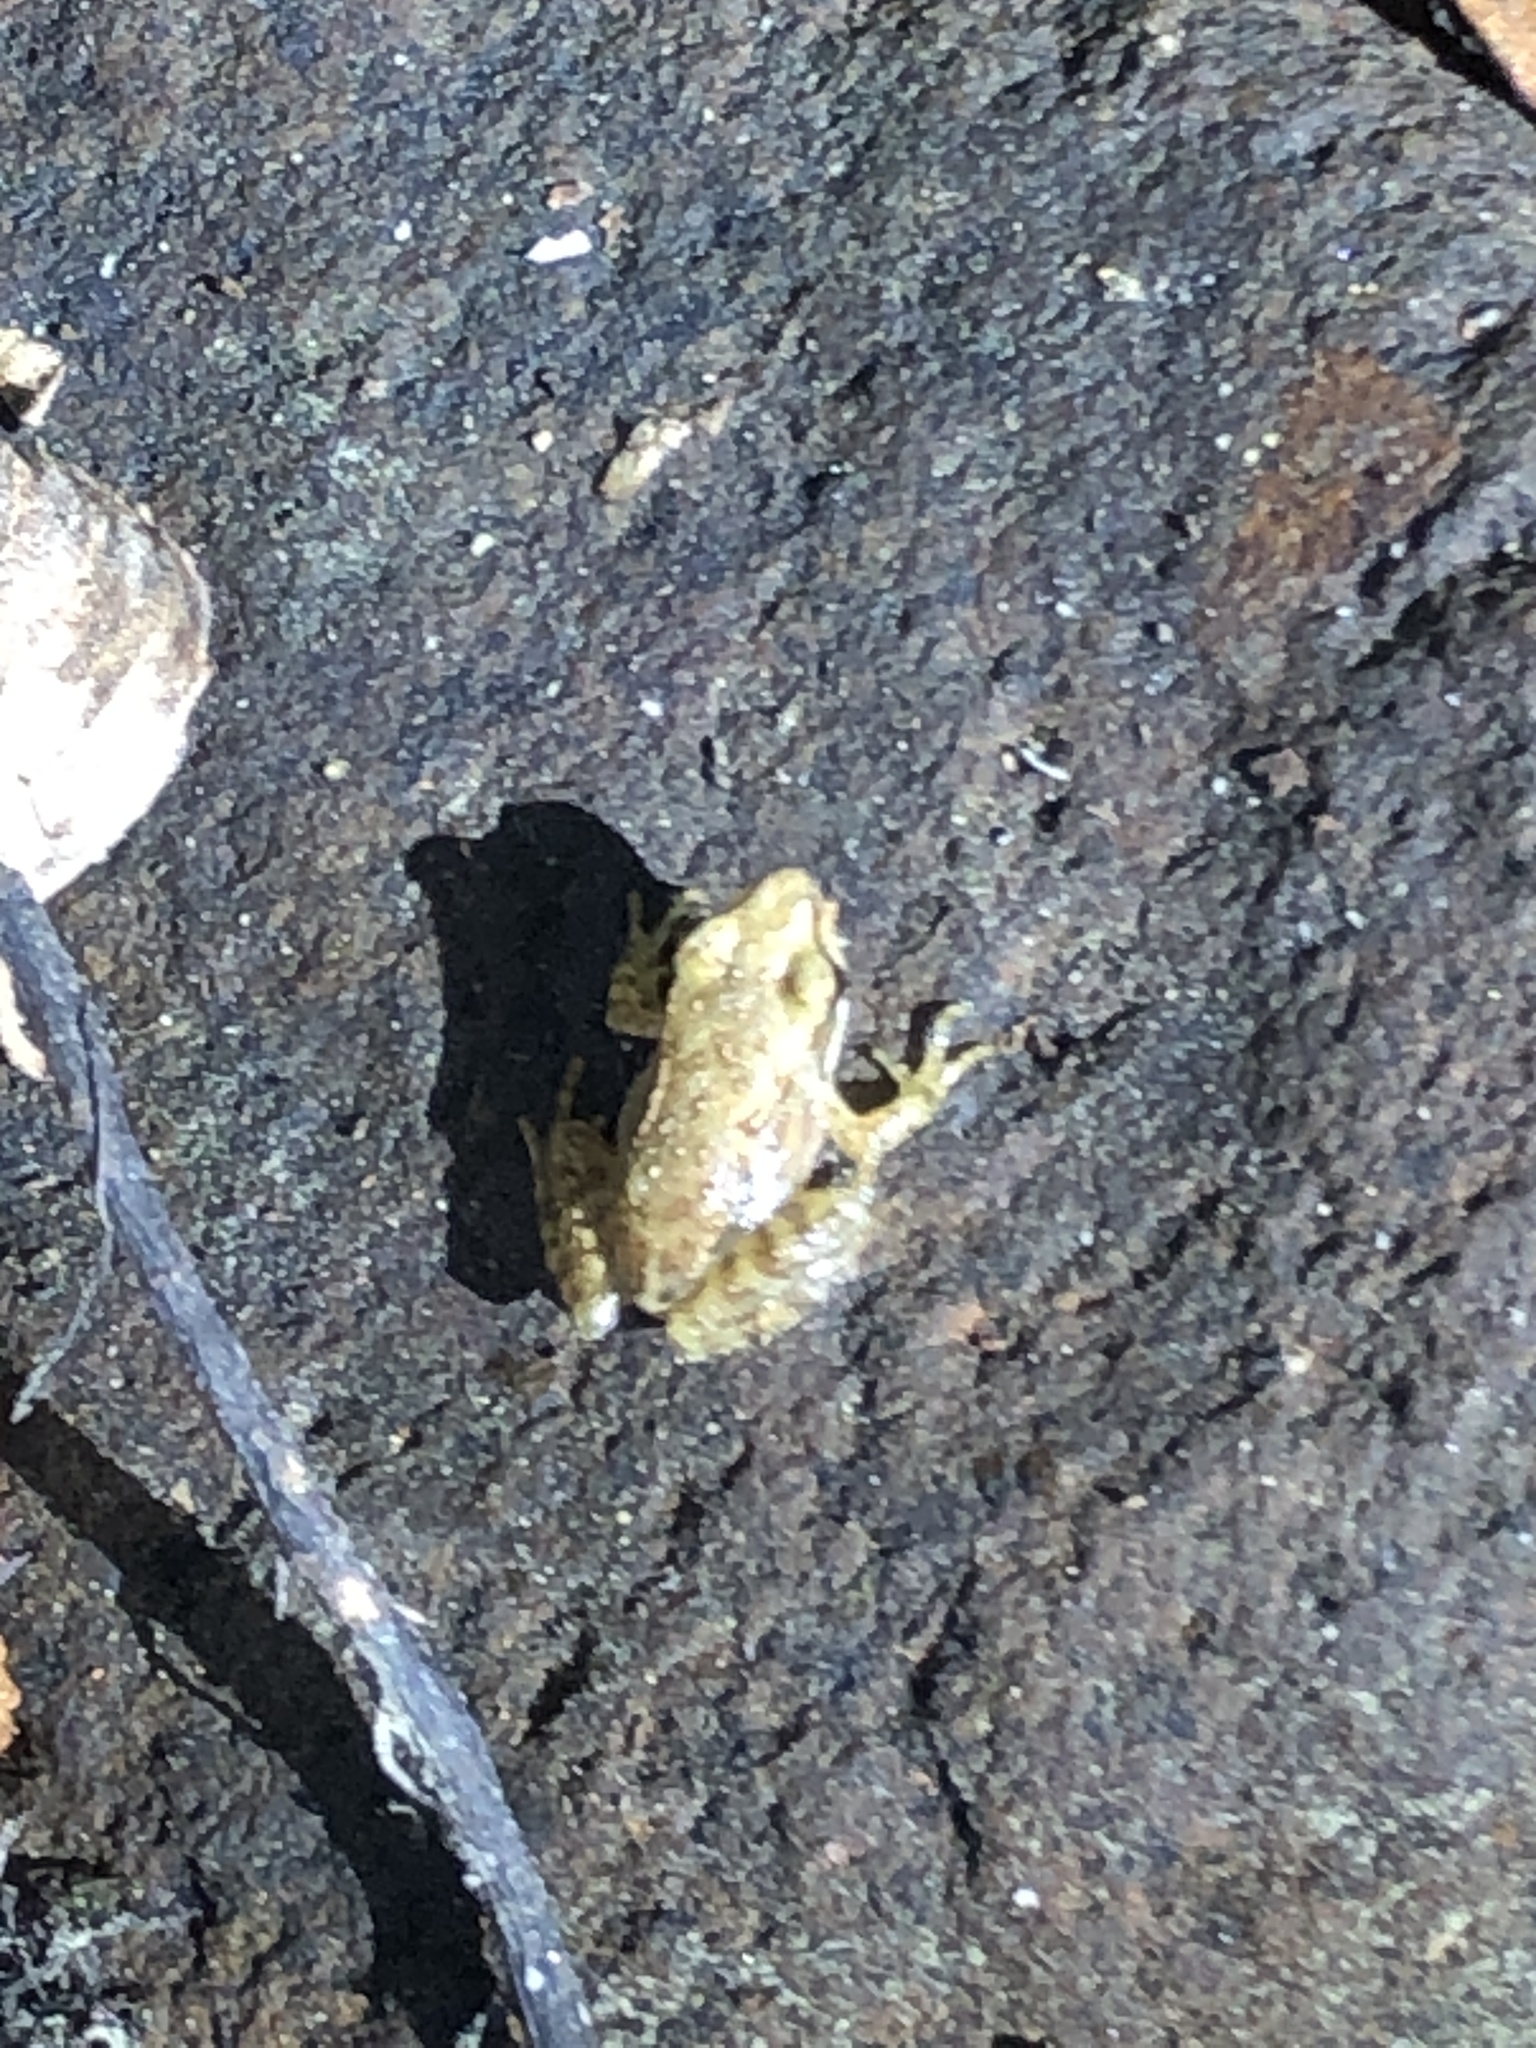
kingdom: Animalia
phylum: Chordata
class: Amphibia
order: Anura
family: Ranidae
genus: Rana
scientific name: Rana iberica
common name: Iberian frog
